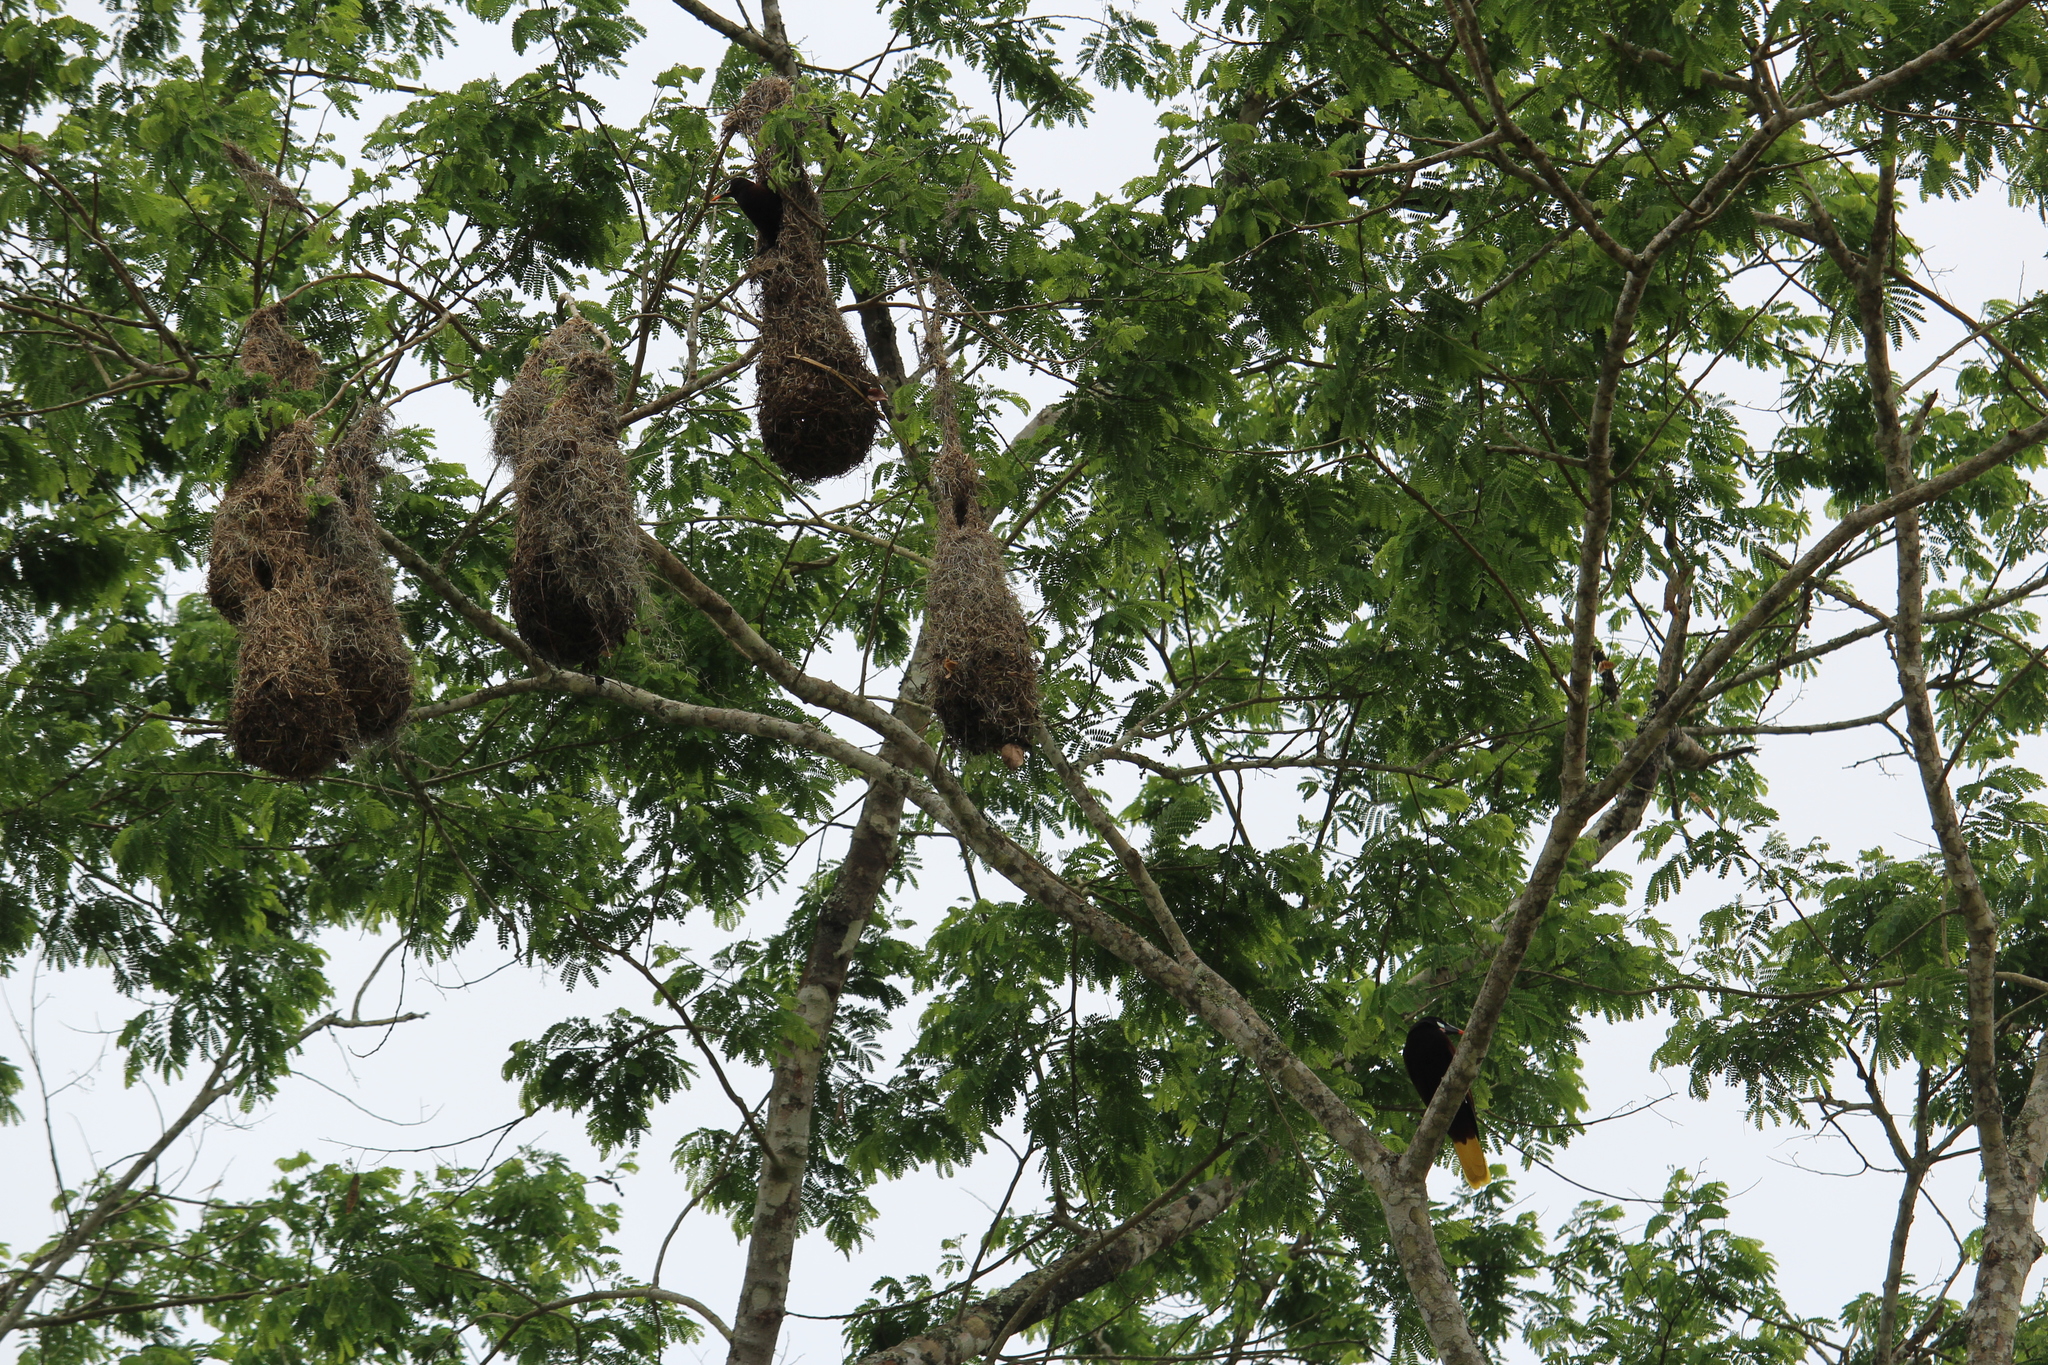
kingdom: Animalia
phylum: Chordata
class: Aves
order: Passeriformes
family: Icteridae
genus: Psarocolius
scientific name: Psarocolius montezuma
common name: Montezuma oropendola
